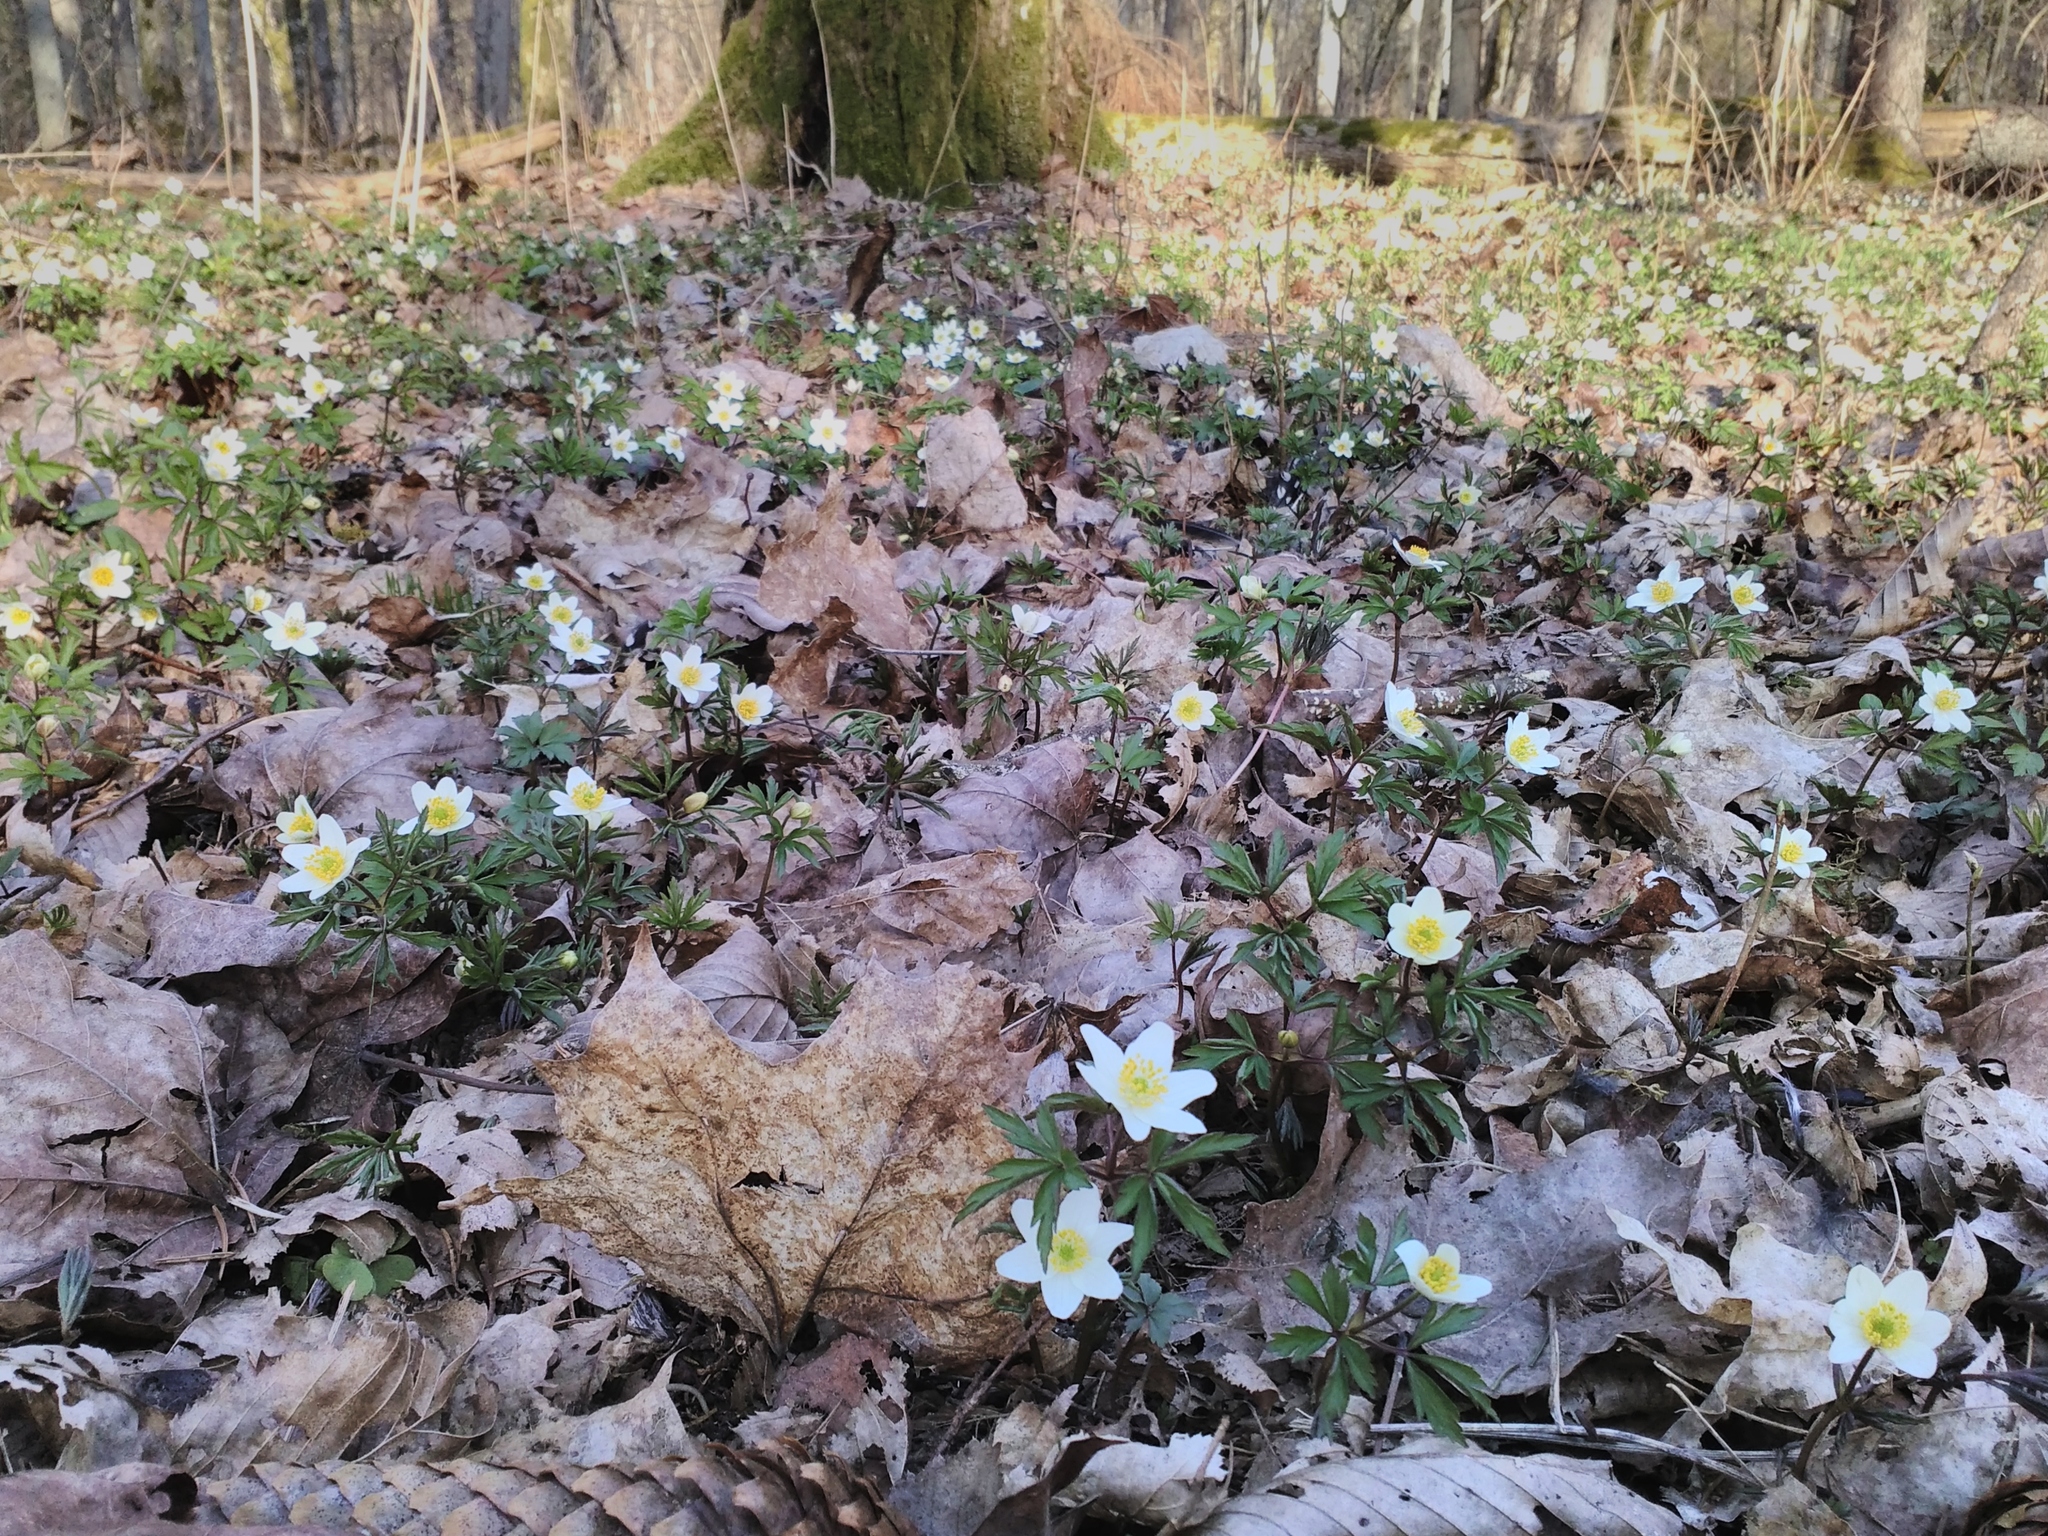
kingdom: Plantae
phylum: Tracheophyta
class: Magnoliopsida
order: Ranunculales
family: Ranunculaceae
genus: Anemone
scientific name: Anemone nemorosa
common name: Wood anemone
